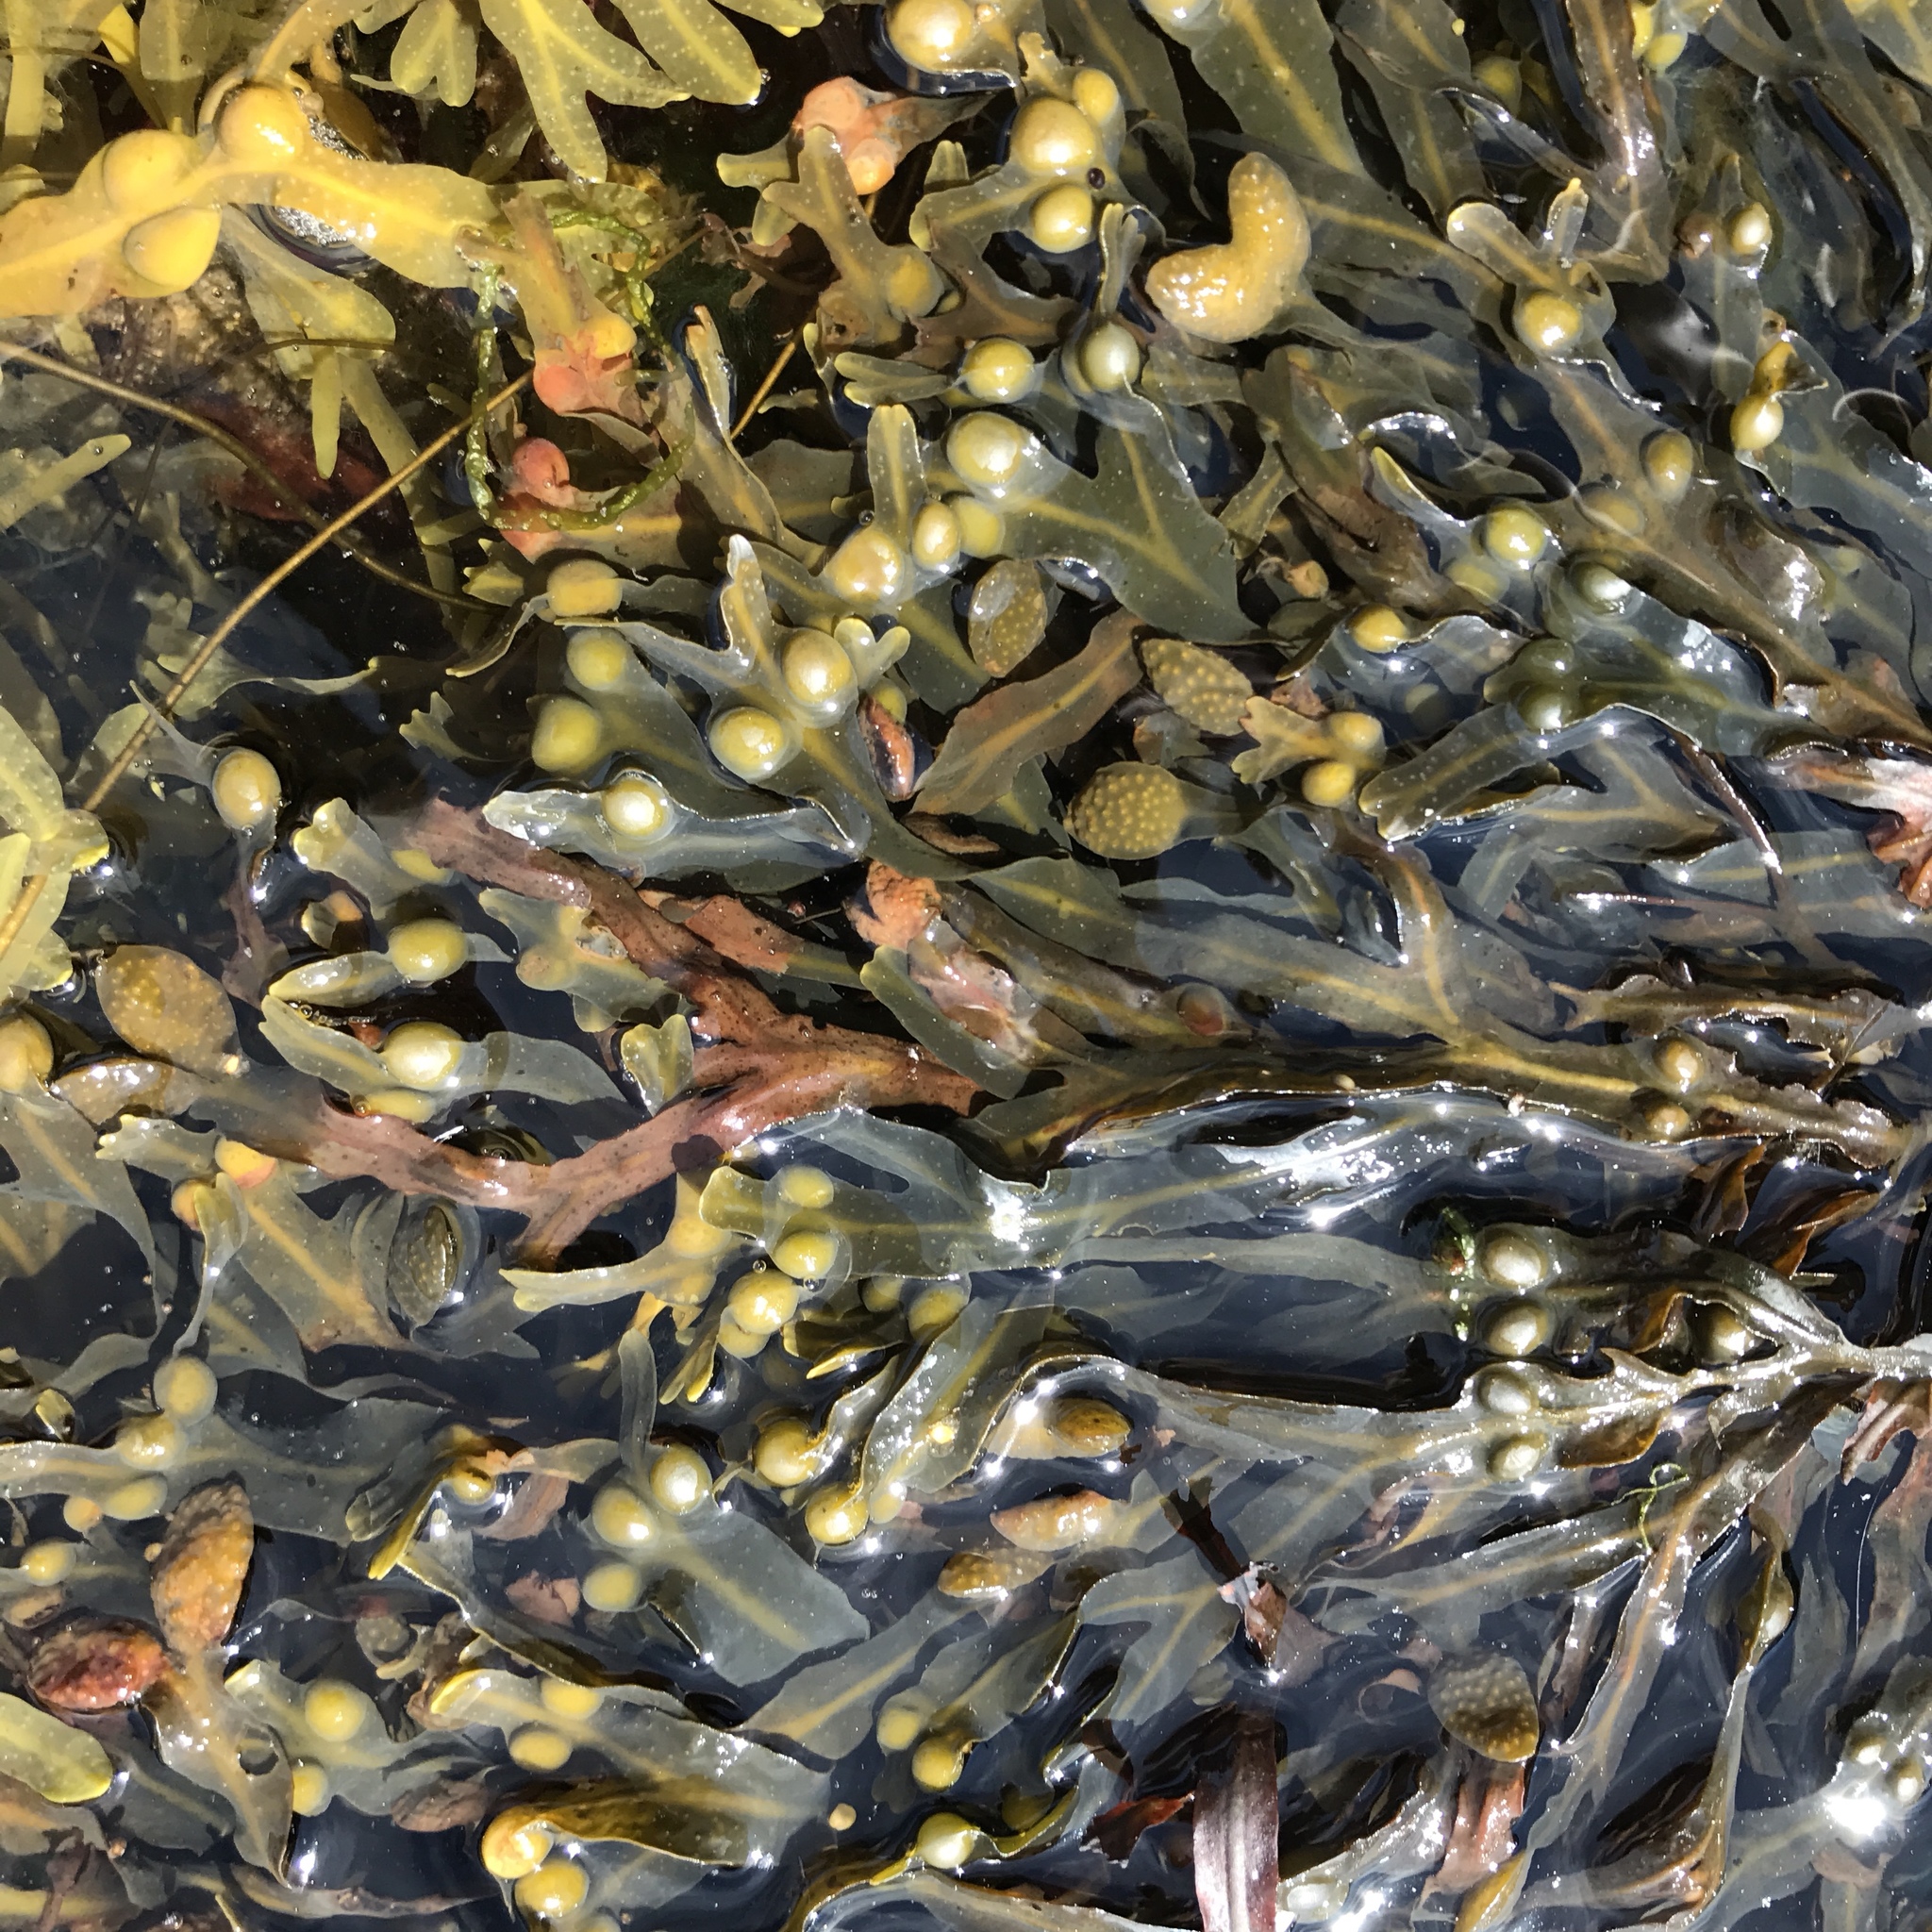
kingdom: Chromista
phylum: Ochrophyta
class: Phaeophyceae
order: Fucales
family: Fucaceae
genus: Fucus
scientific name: Fucus vesiculosus
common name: Bladder wrack
